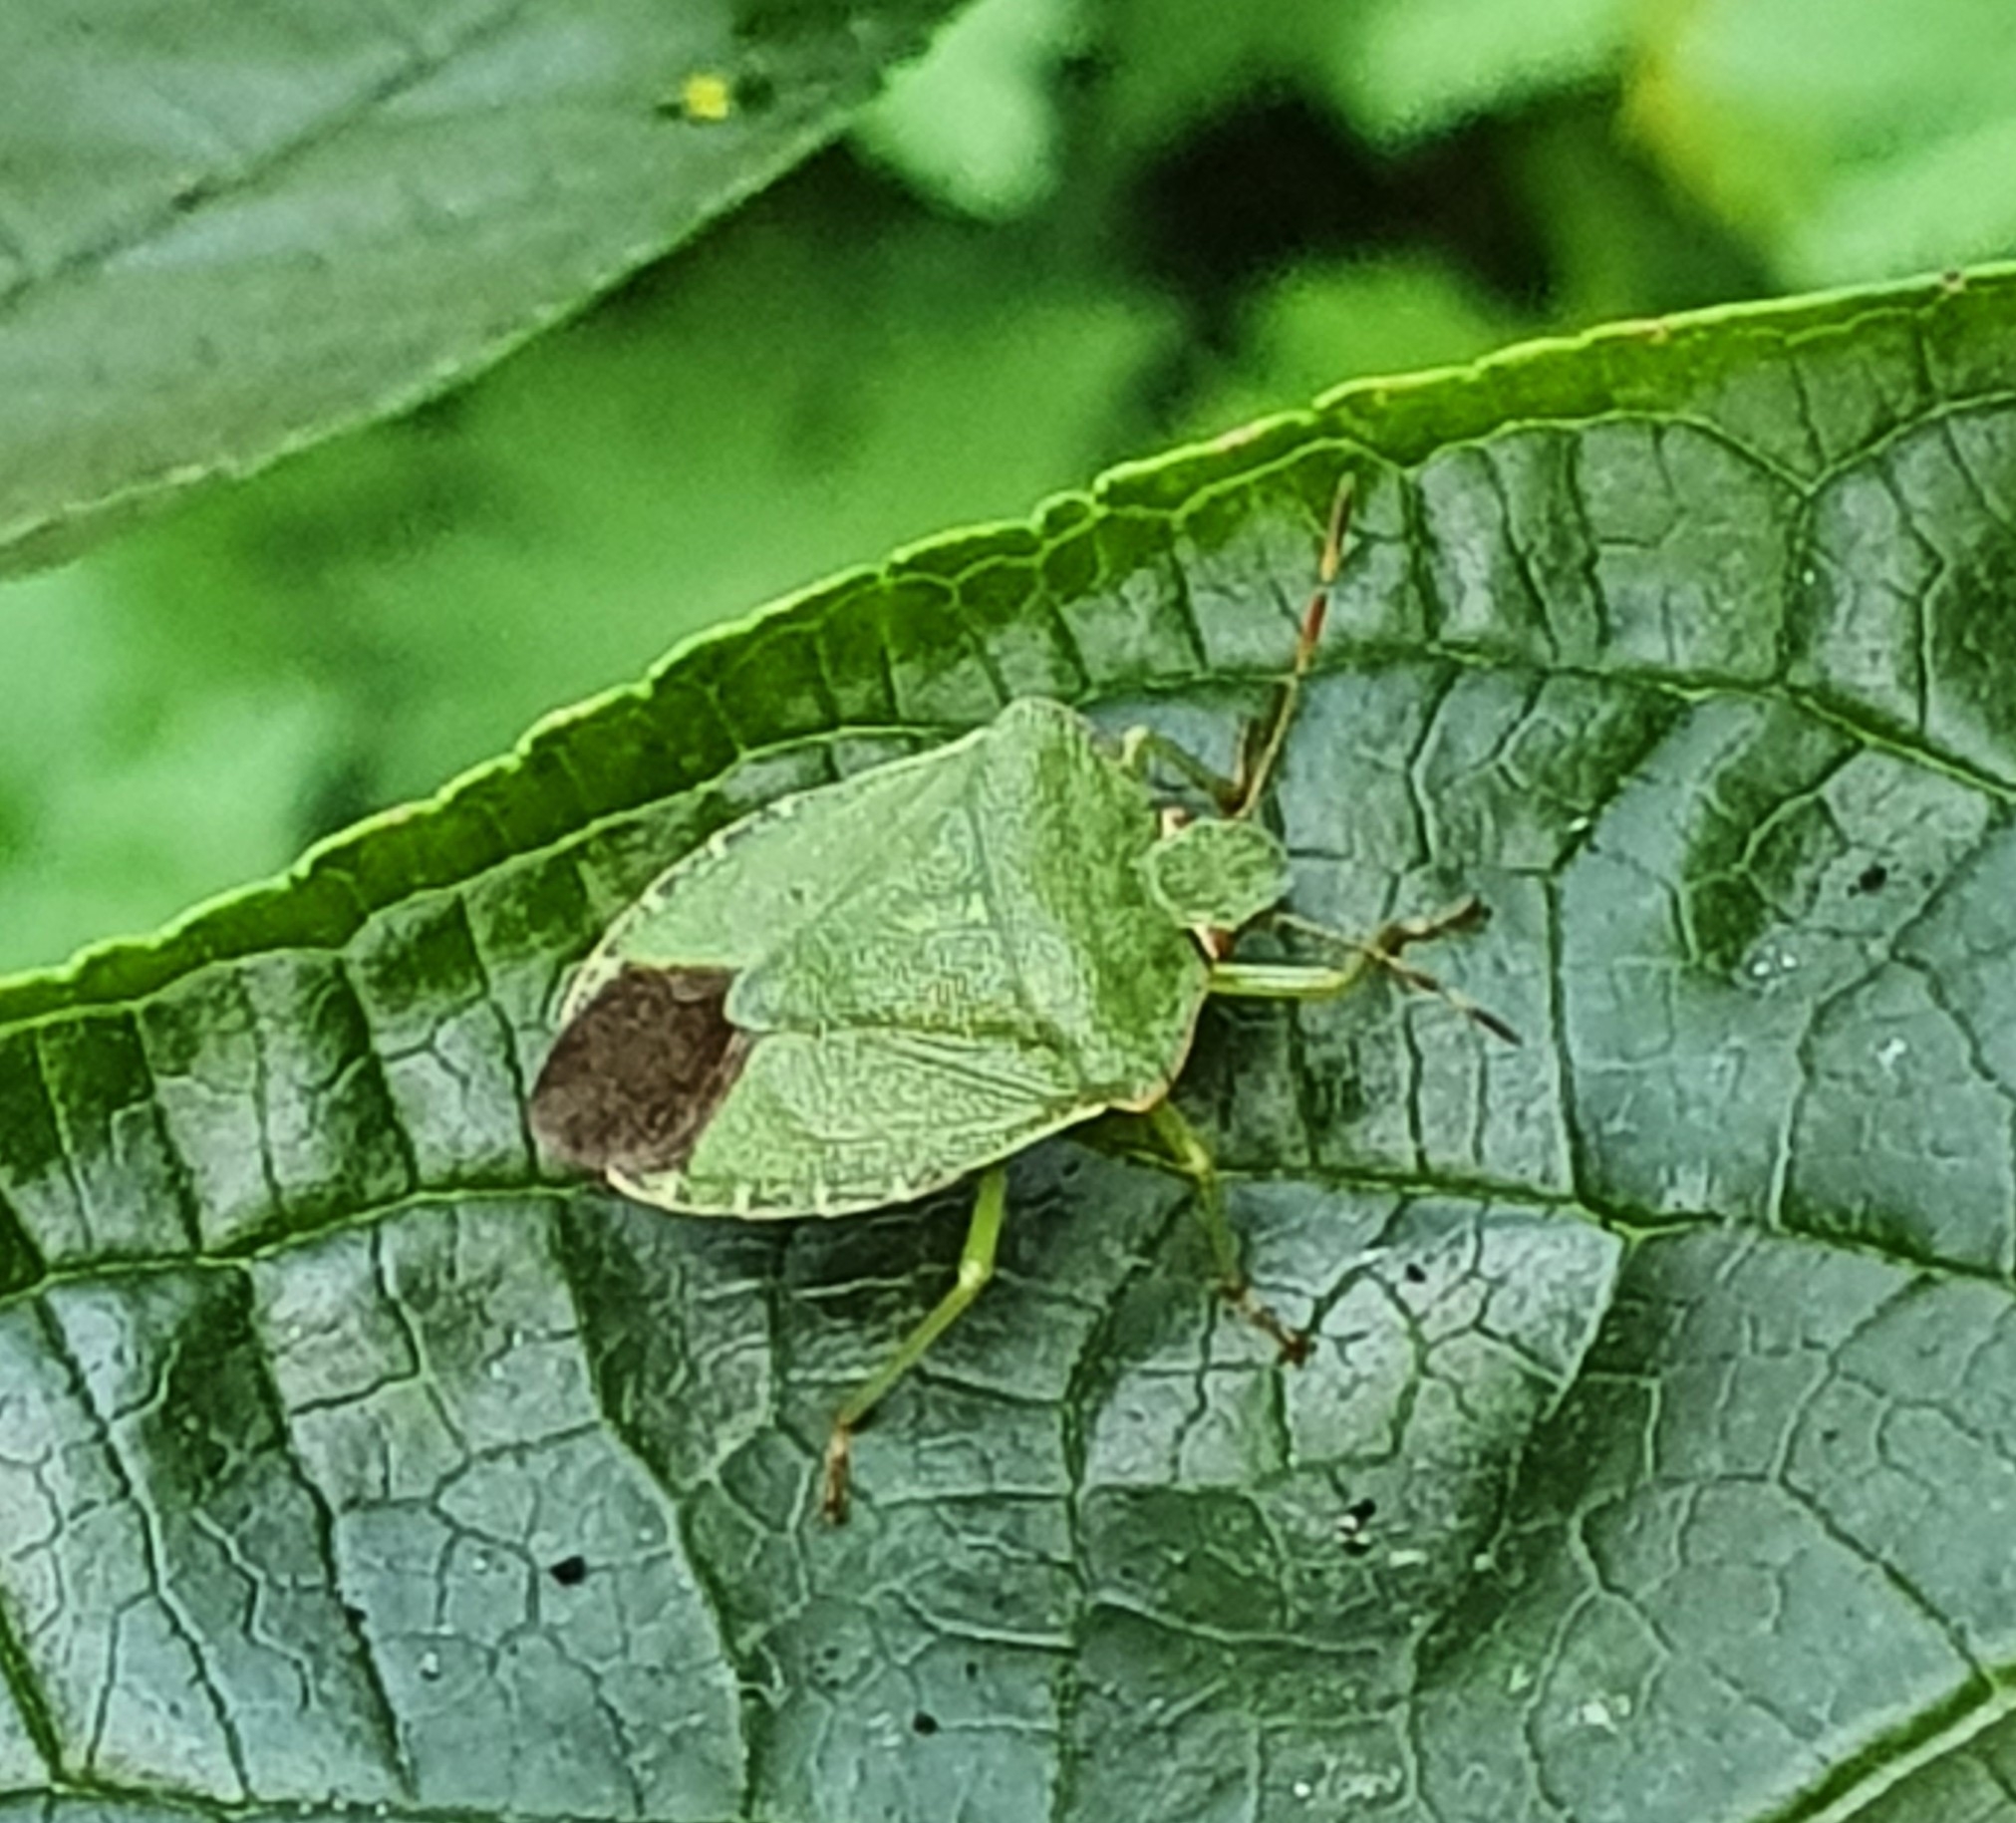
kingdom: Animalia
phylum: Arthropoda
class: Insecta
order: Hemiptera
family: Pentatomidae
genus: Palomena
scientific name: Palomena prasina
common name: Green shieldbug
